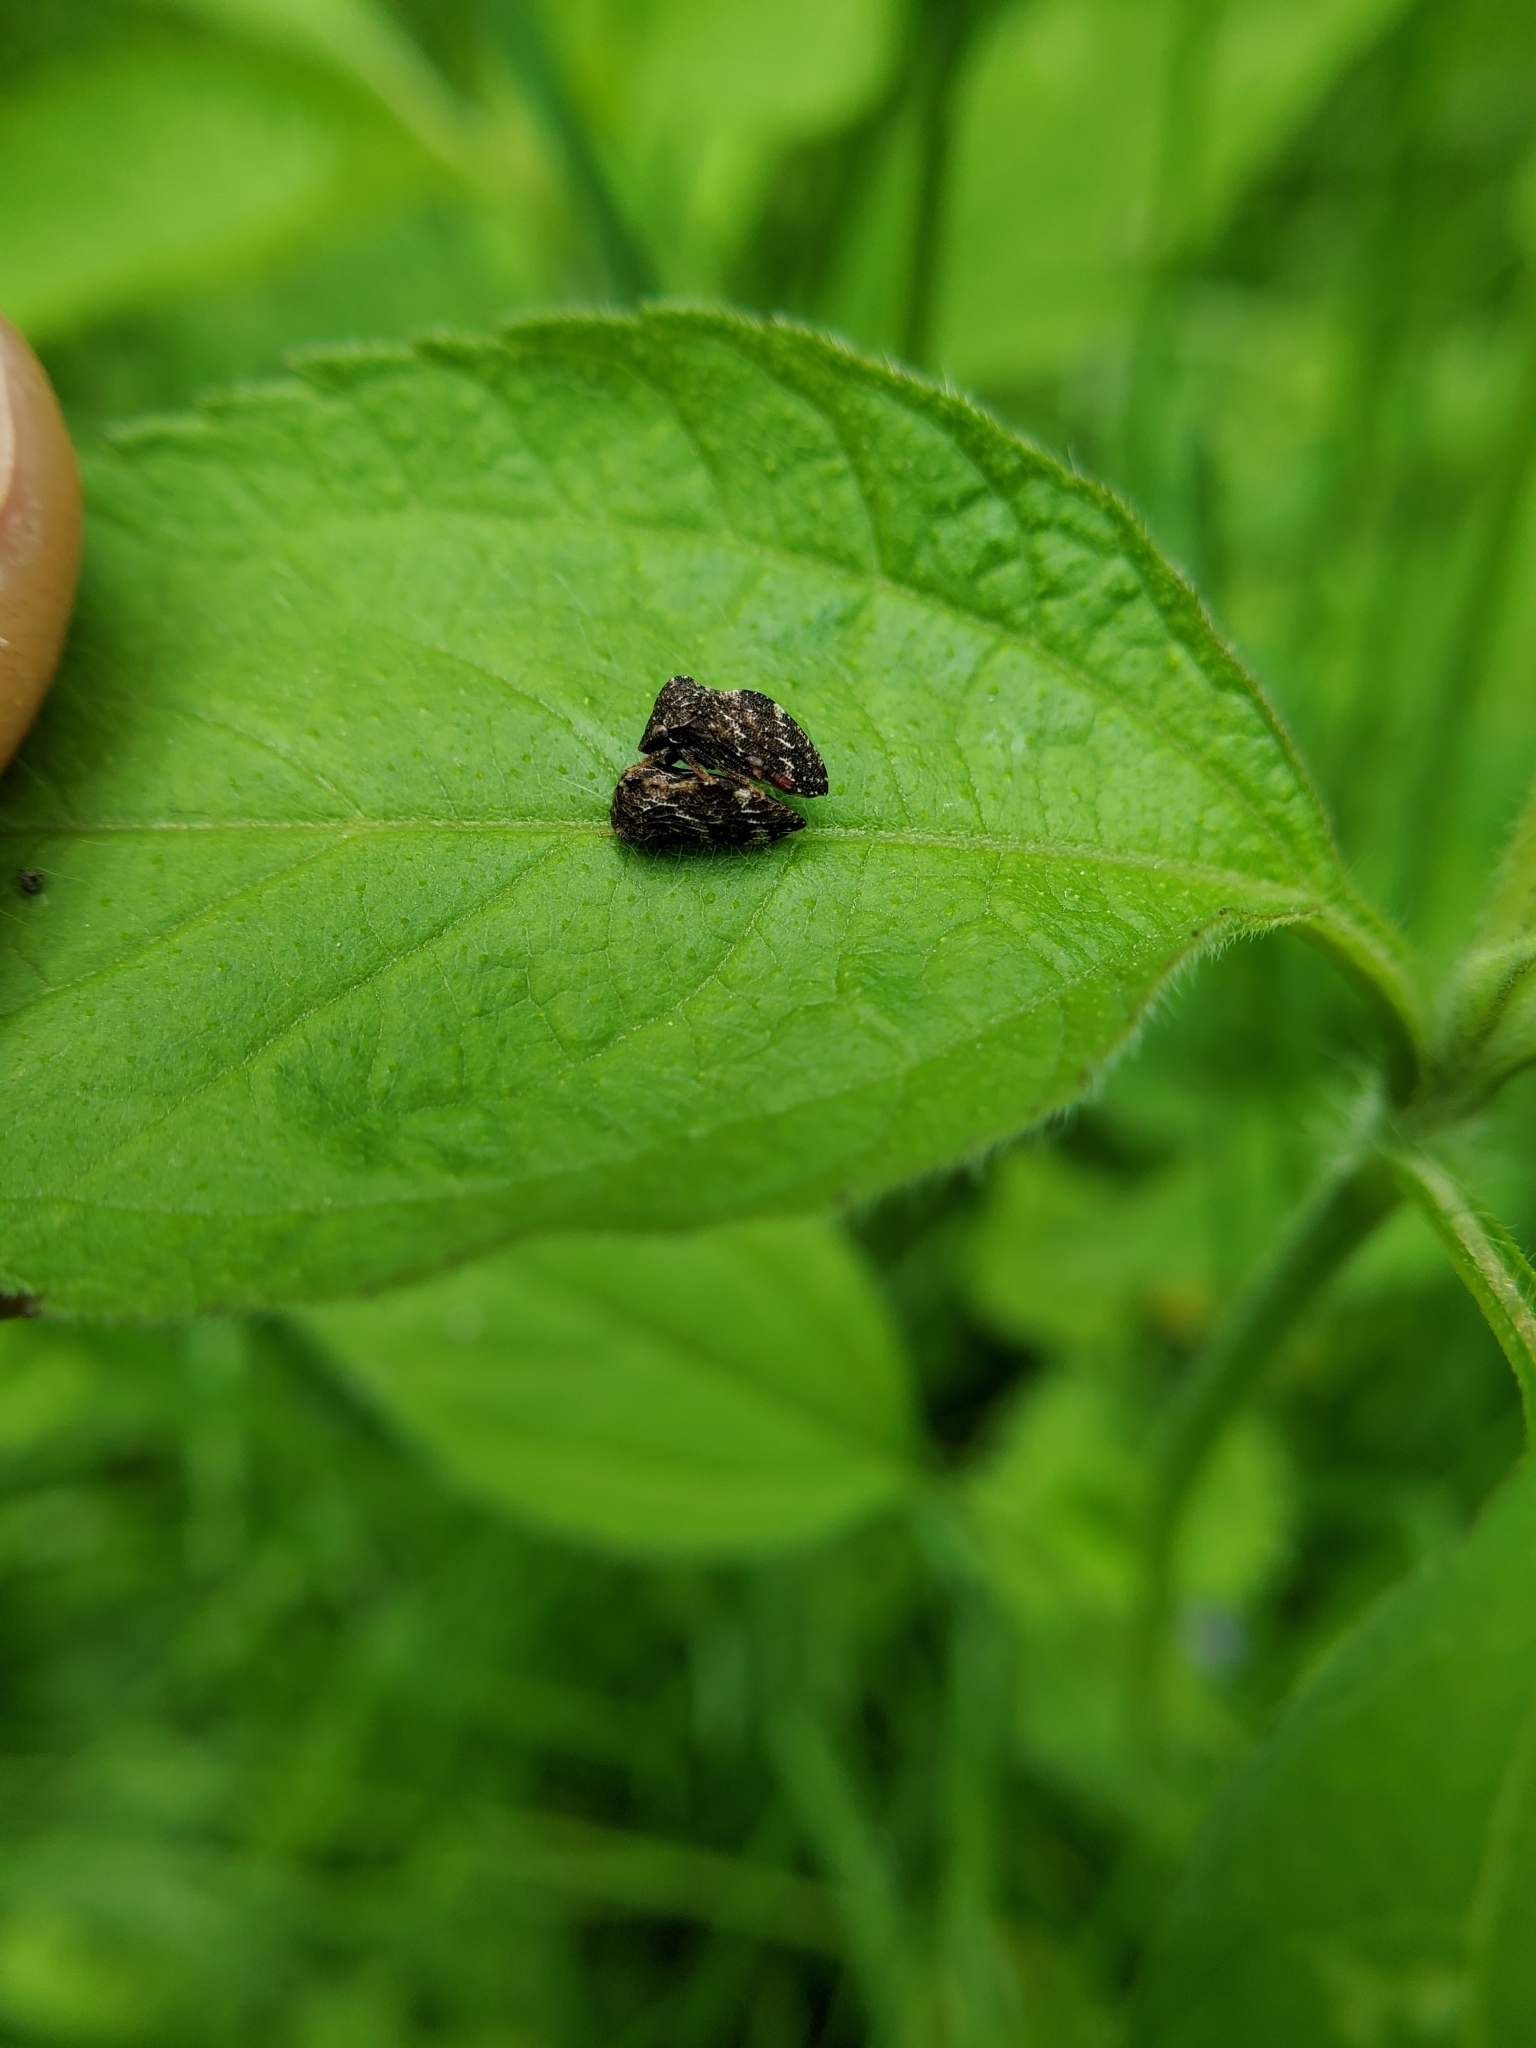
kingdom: Animalia
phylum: Arthropoda
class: Insecta
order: Hemiptera
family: Membracidae
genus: Publilia
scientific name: Publilia concava
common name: Aster treehopper
